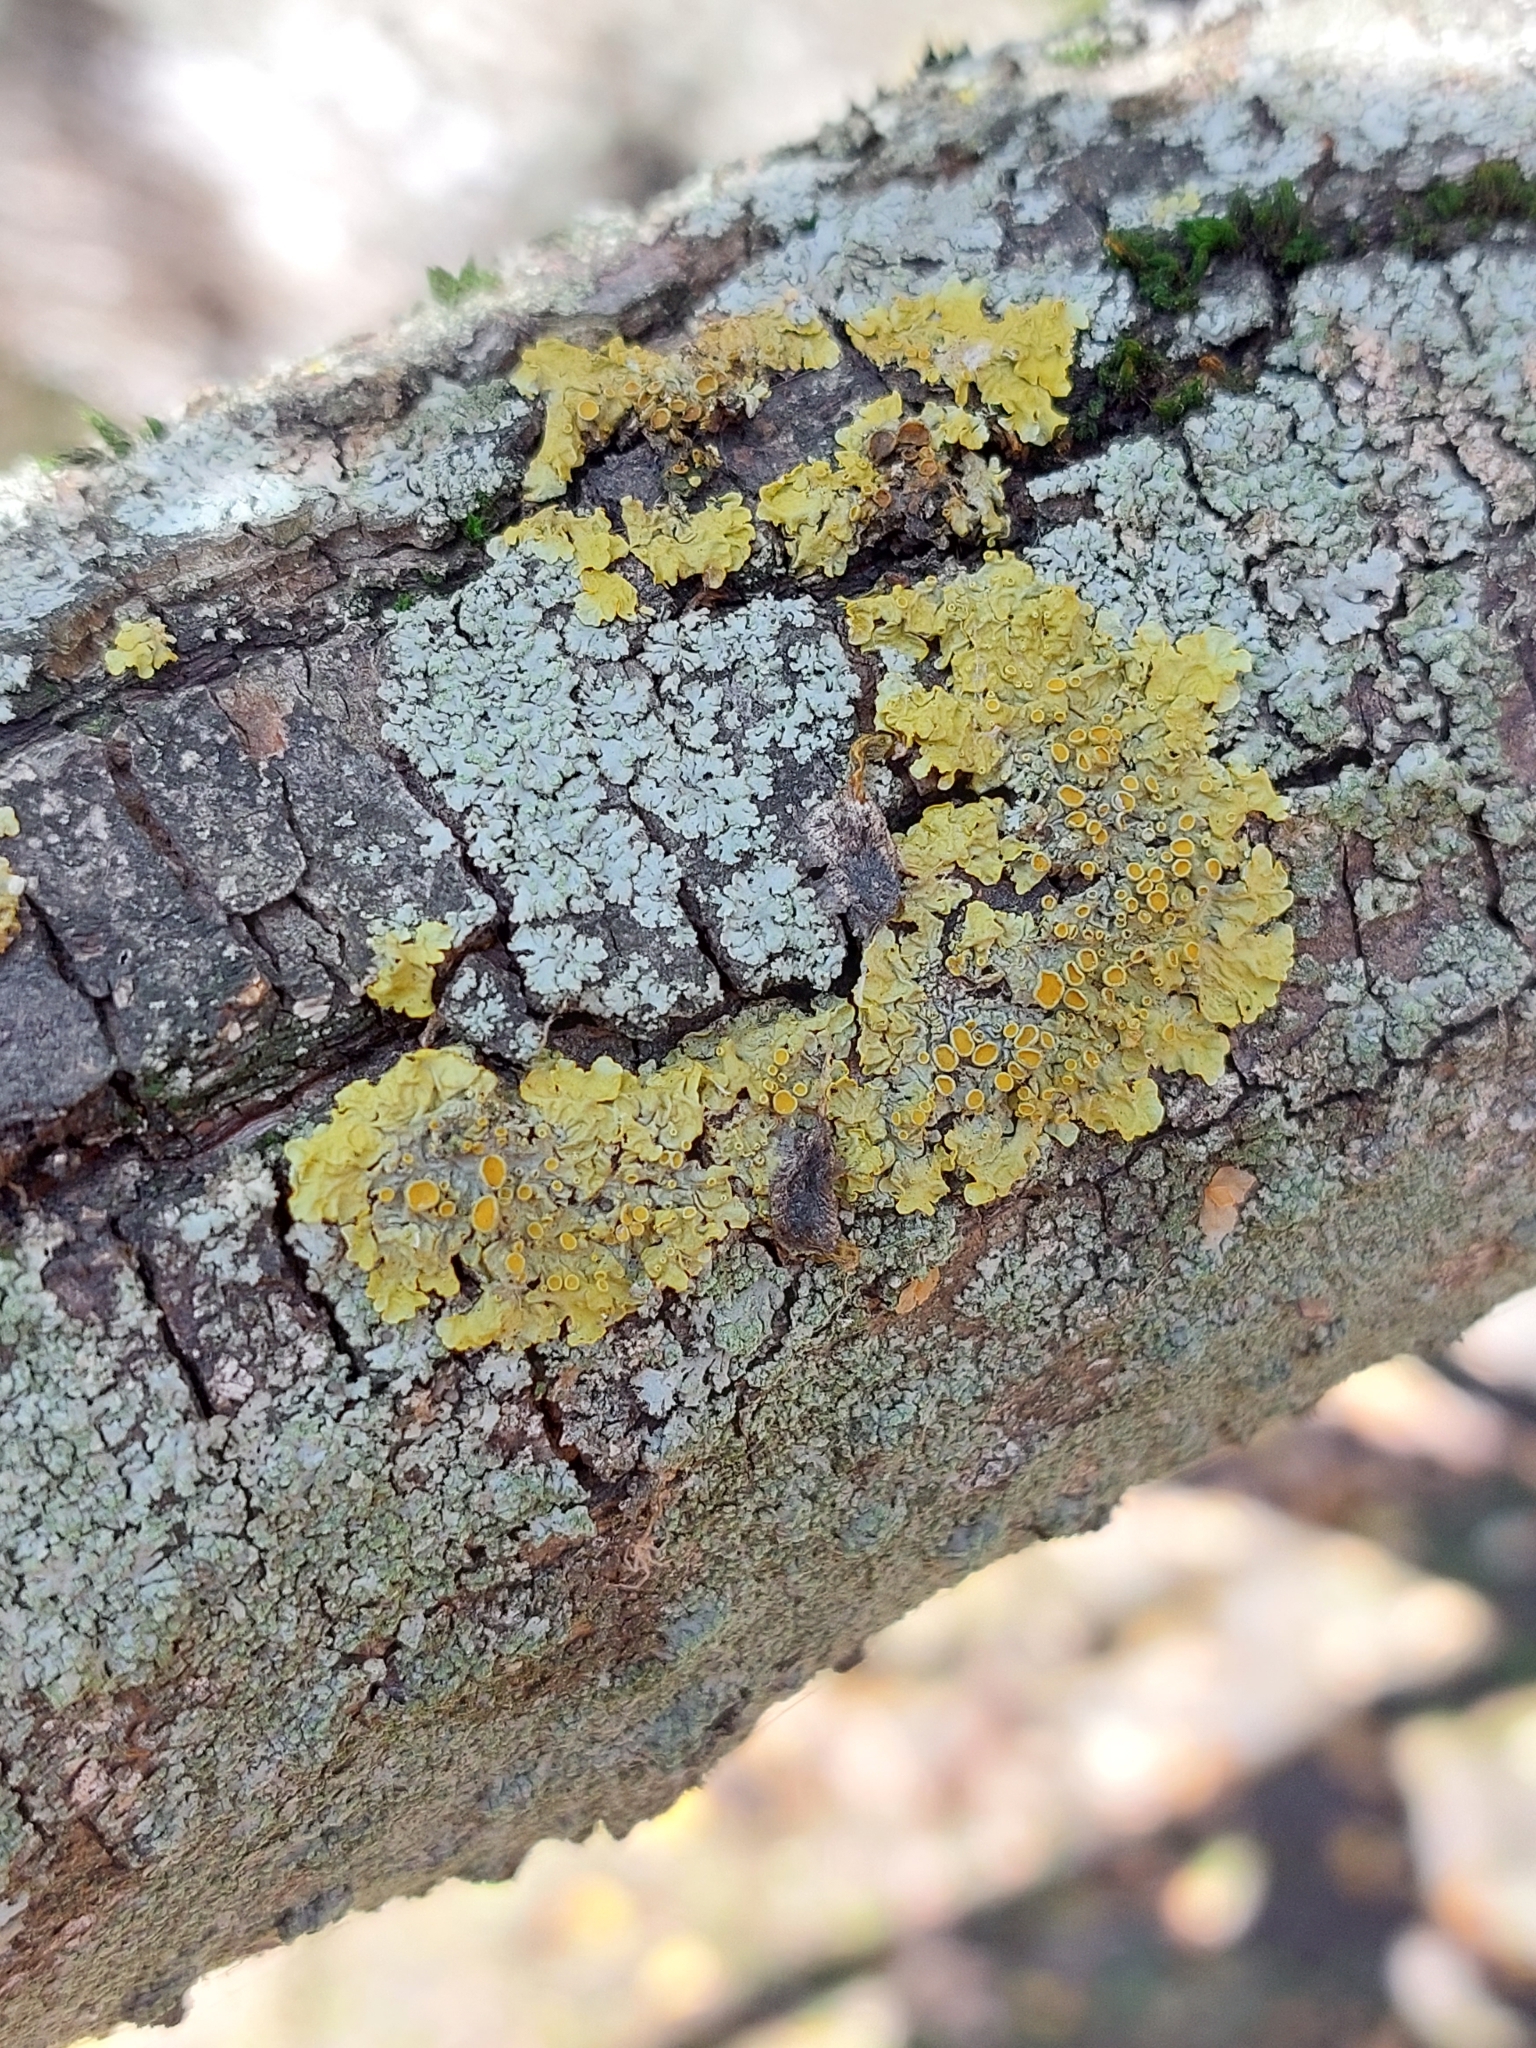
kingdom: Fungi
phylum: Ascomycota
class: Lecanoromycetes
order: Teloschistales
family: Teloschistaceae
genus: Xanthoria
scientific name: Xanthoria parietina
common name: Common orange lichen
